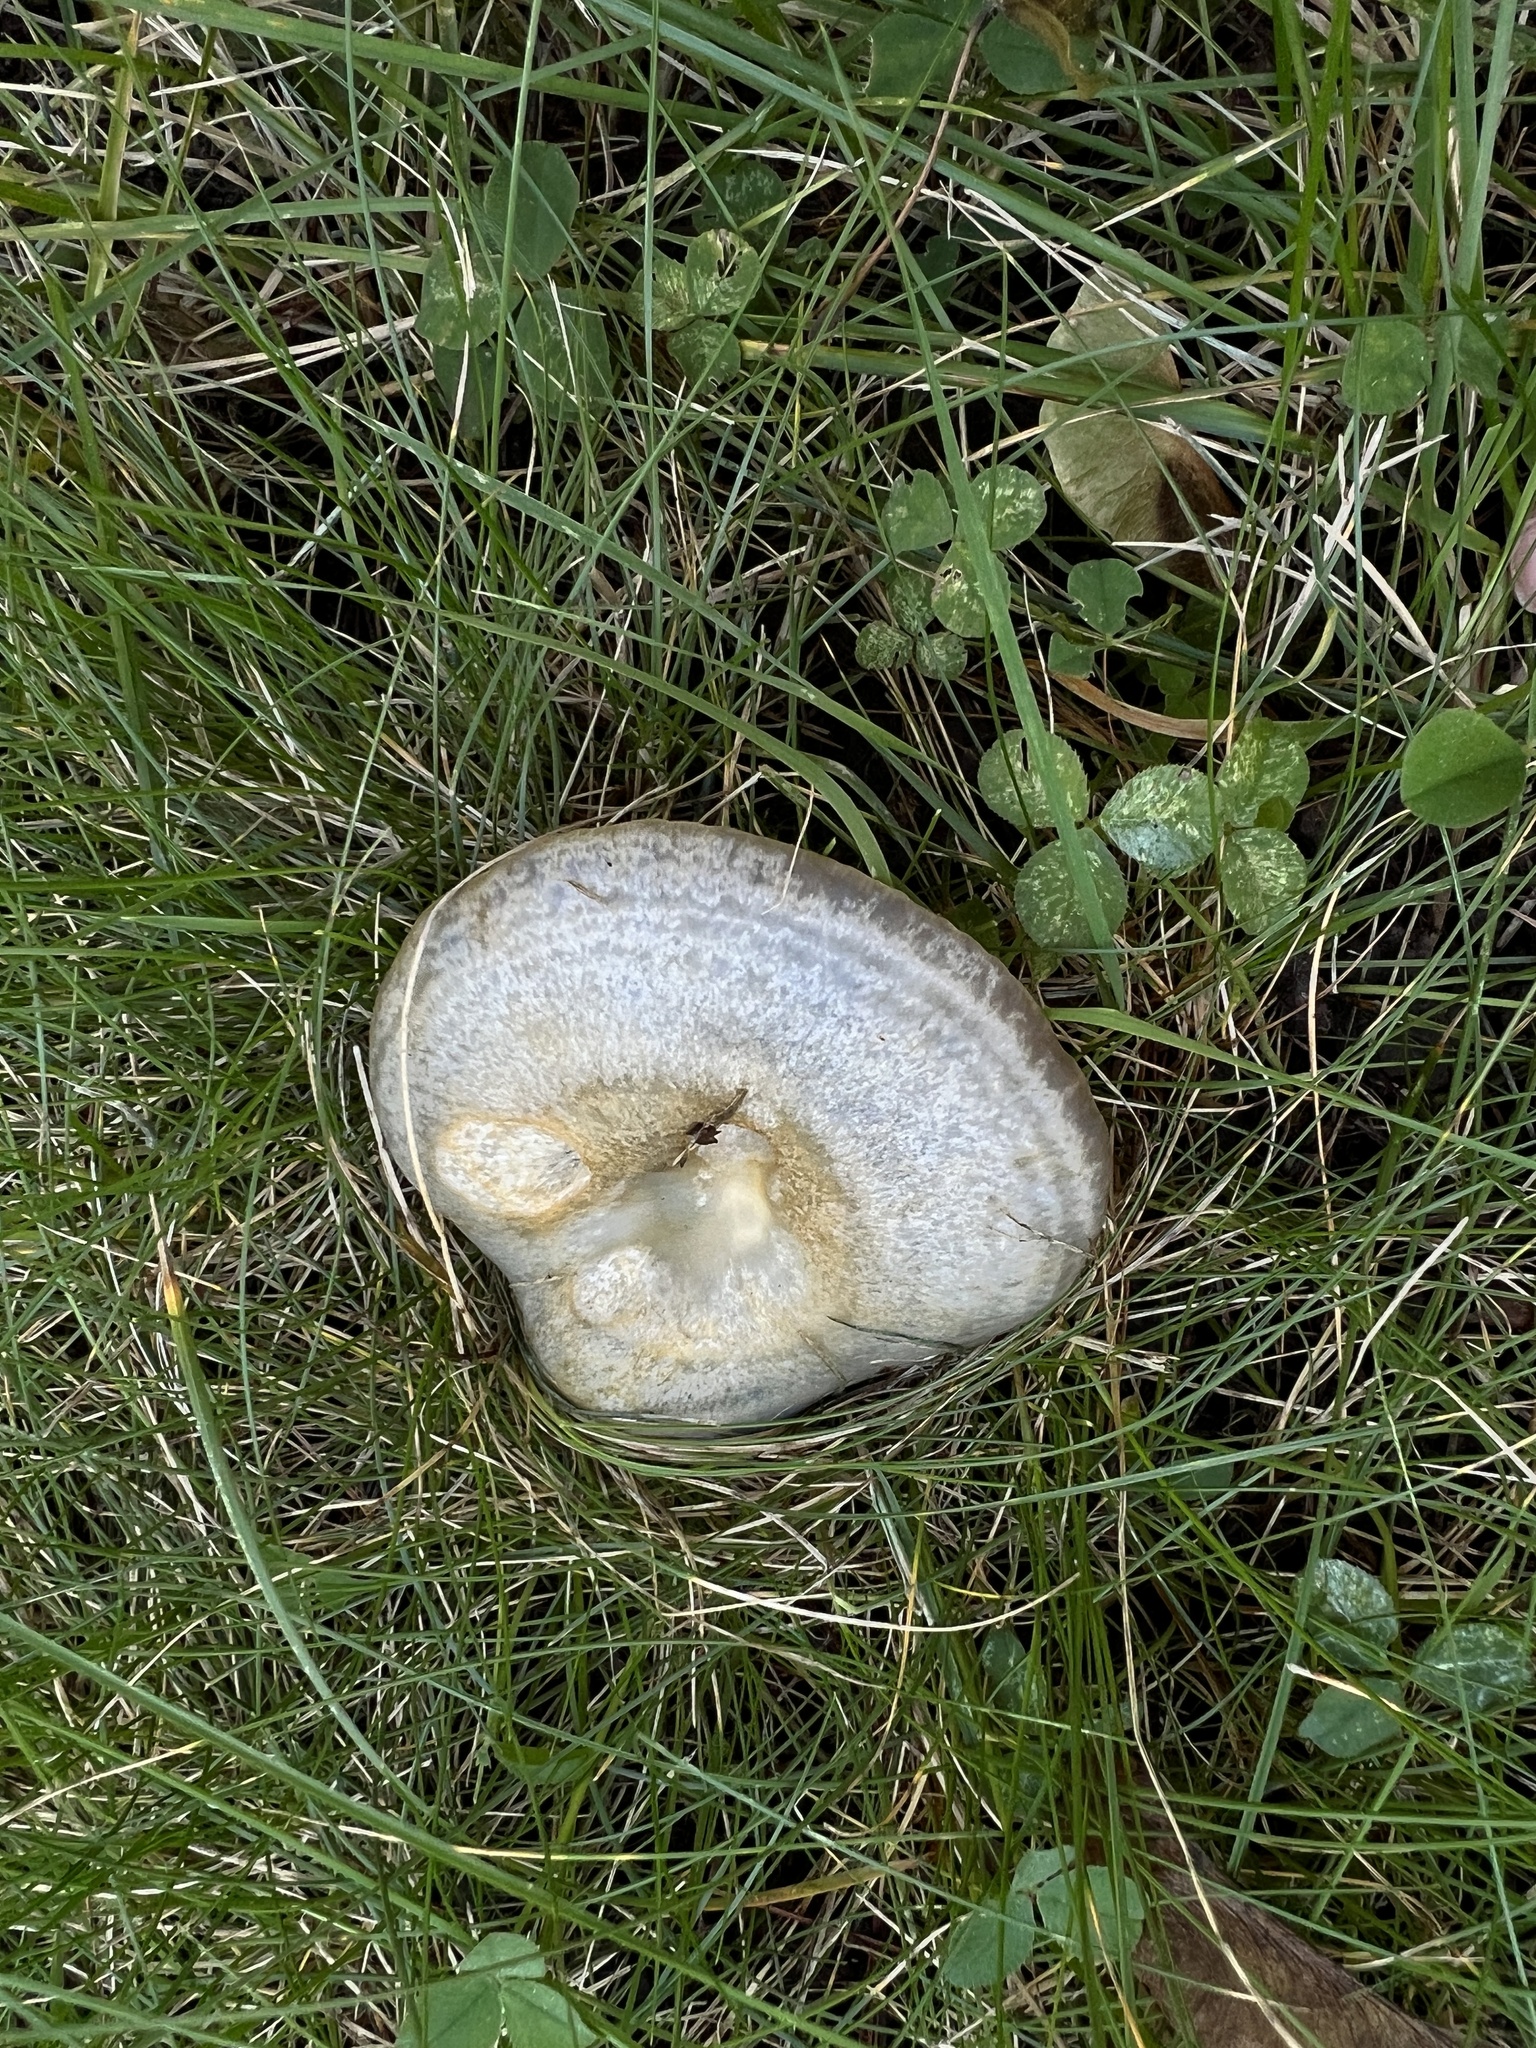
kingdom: Fungi
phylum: Basidiomycota
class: Agaricomycetes
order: Russulales
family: Russulaceae
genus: Lactarius
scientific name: Lactarius chelidonium
